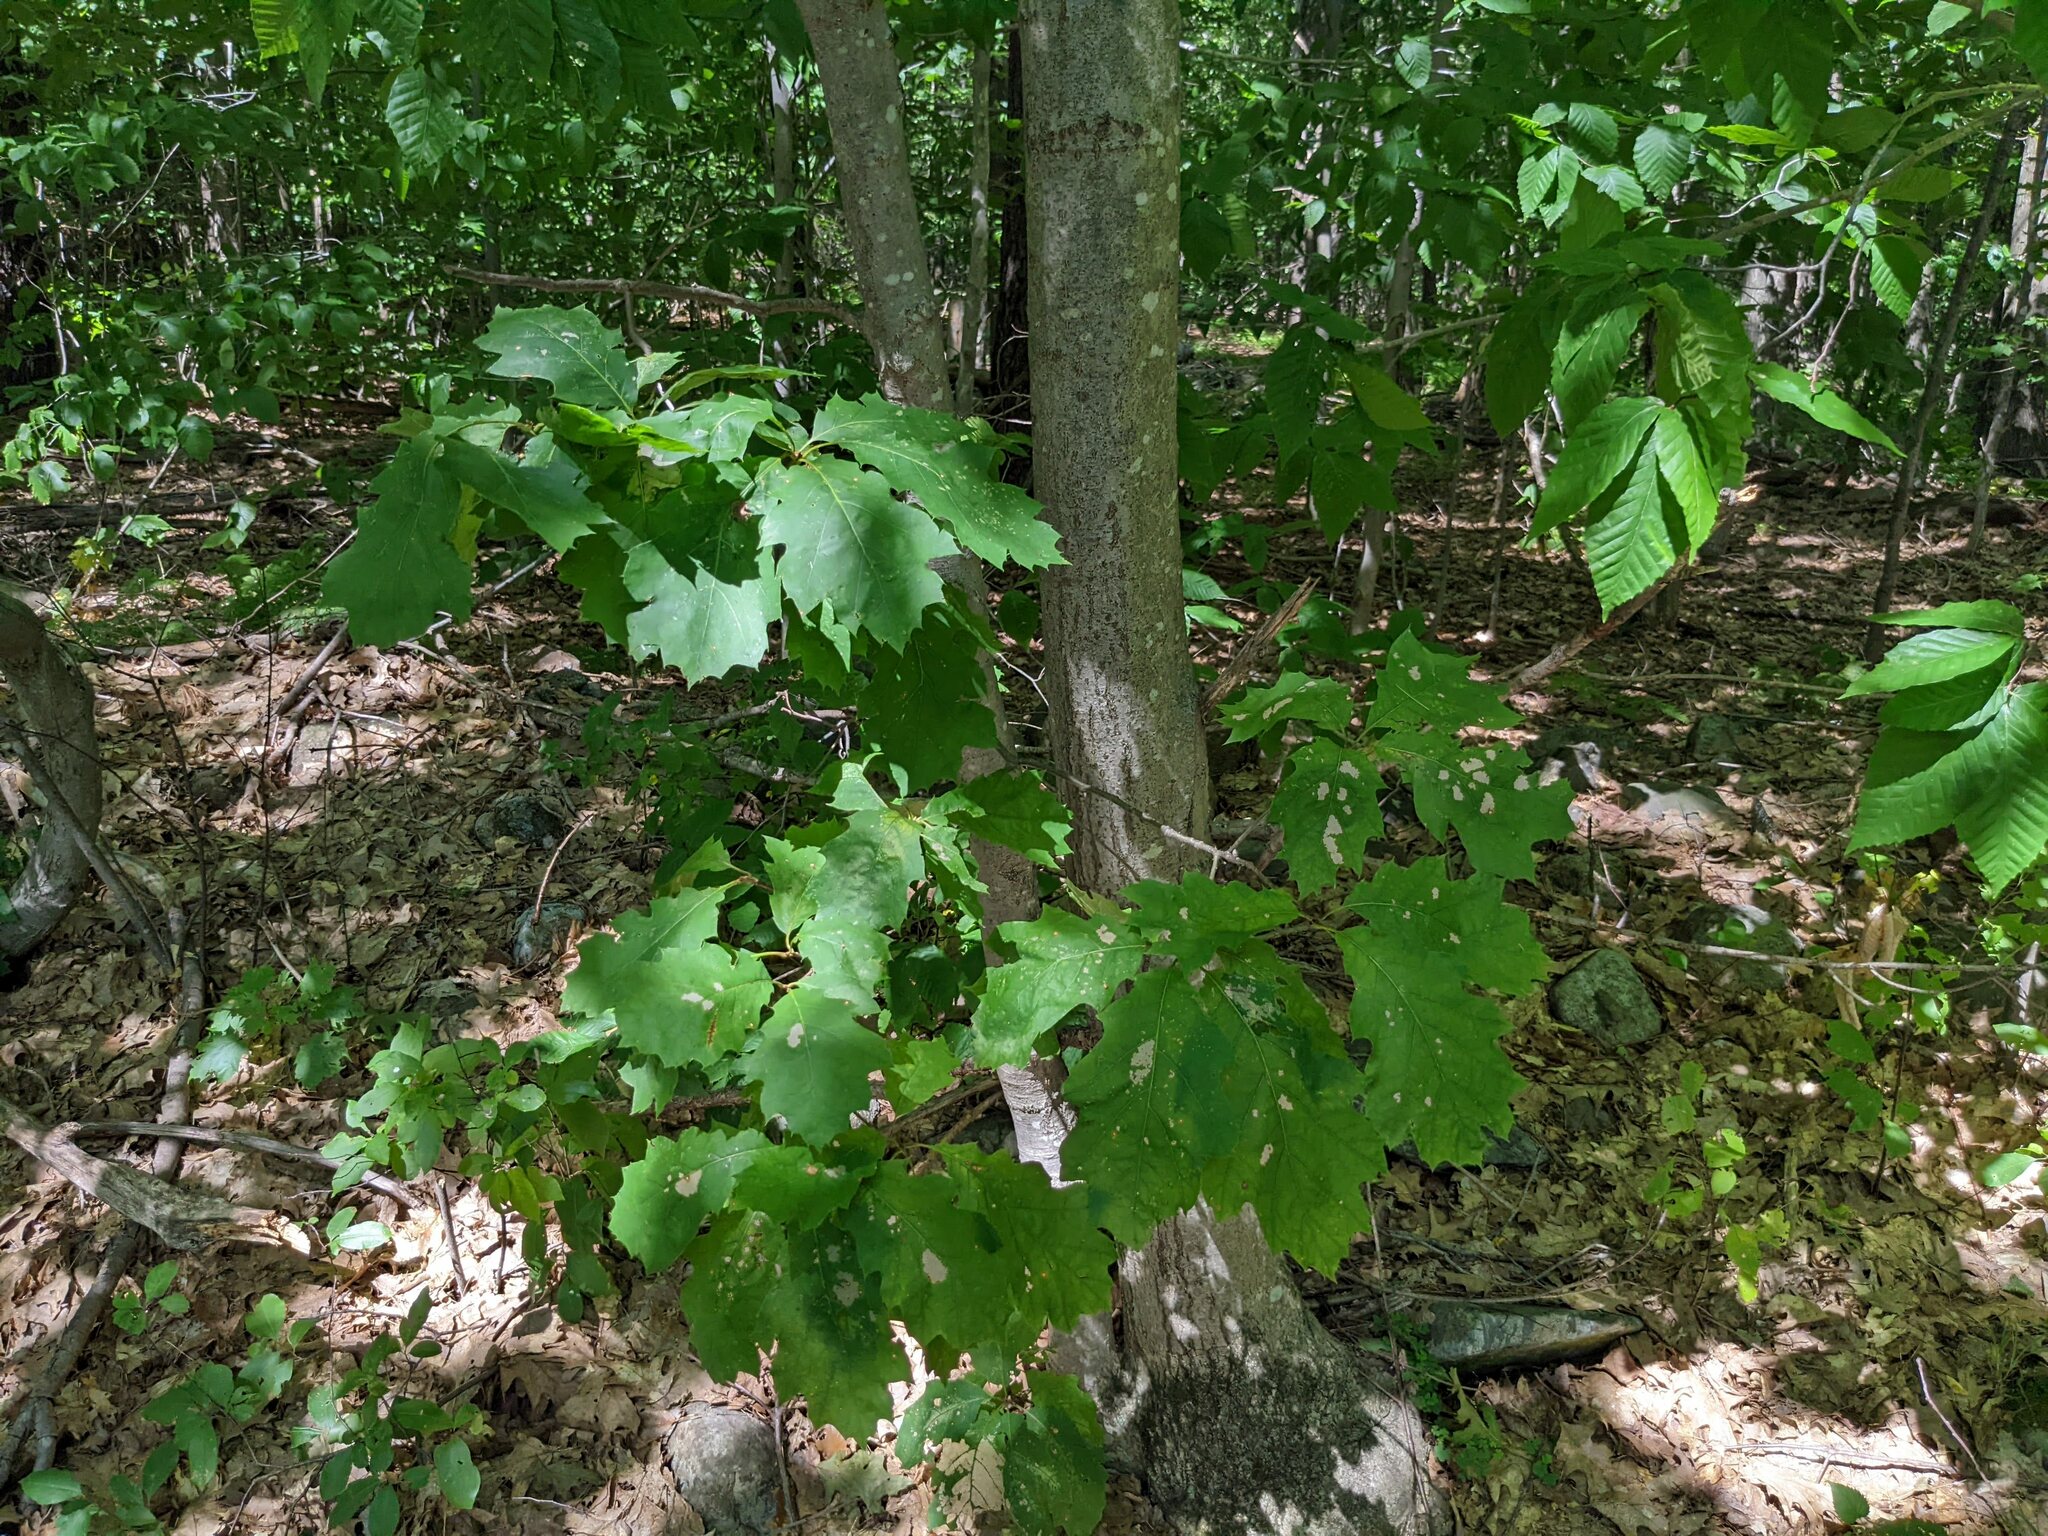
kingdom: Plantae
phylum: Tracheophyta
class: Magnoliopsida
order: Fagales
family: Fagaceae
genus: Quercus
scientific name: Quercus rubra
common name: Red oak
